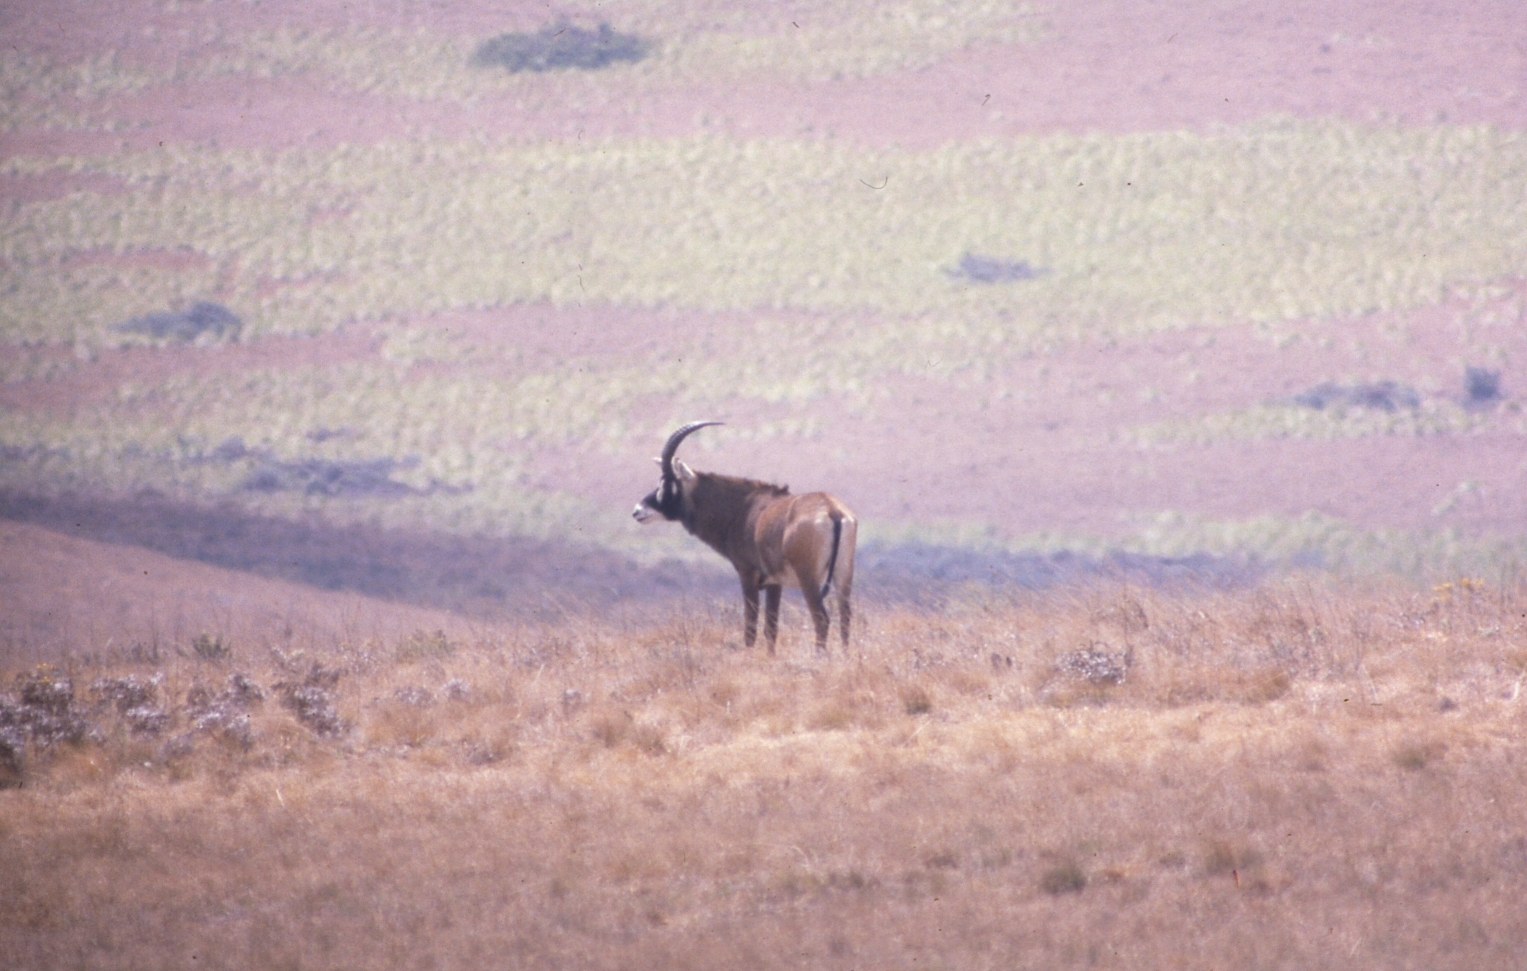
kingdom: Animalia
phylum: Chordata
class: Mammalia
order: Artiodactyla
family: Bovidae
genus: Hippotragus
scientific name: Hippotragus equinus
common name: Roan antelope
